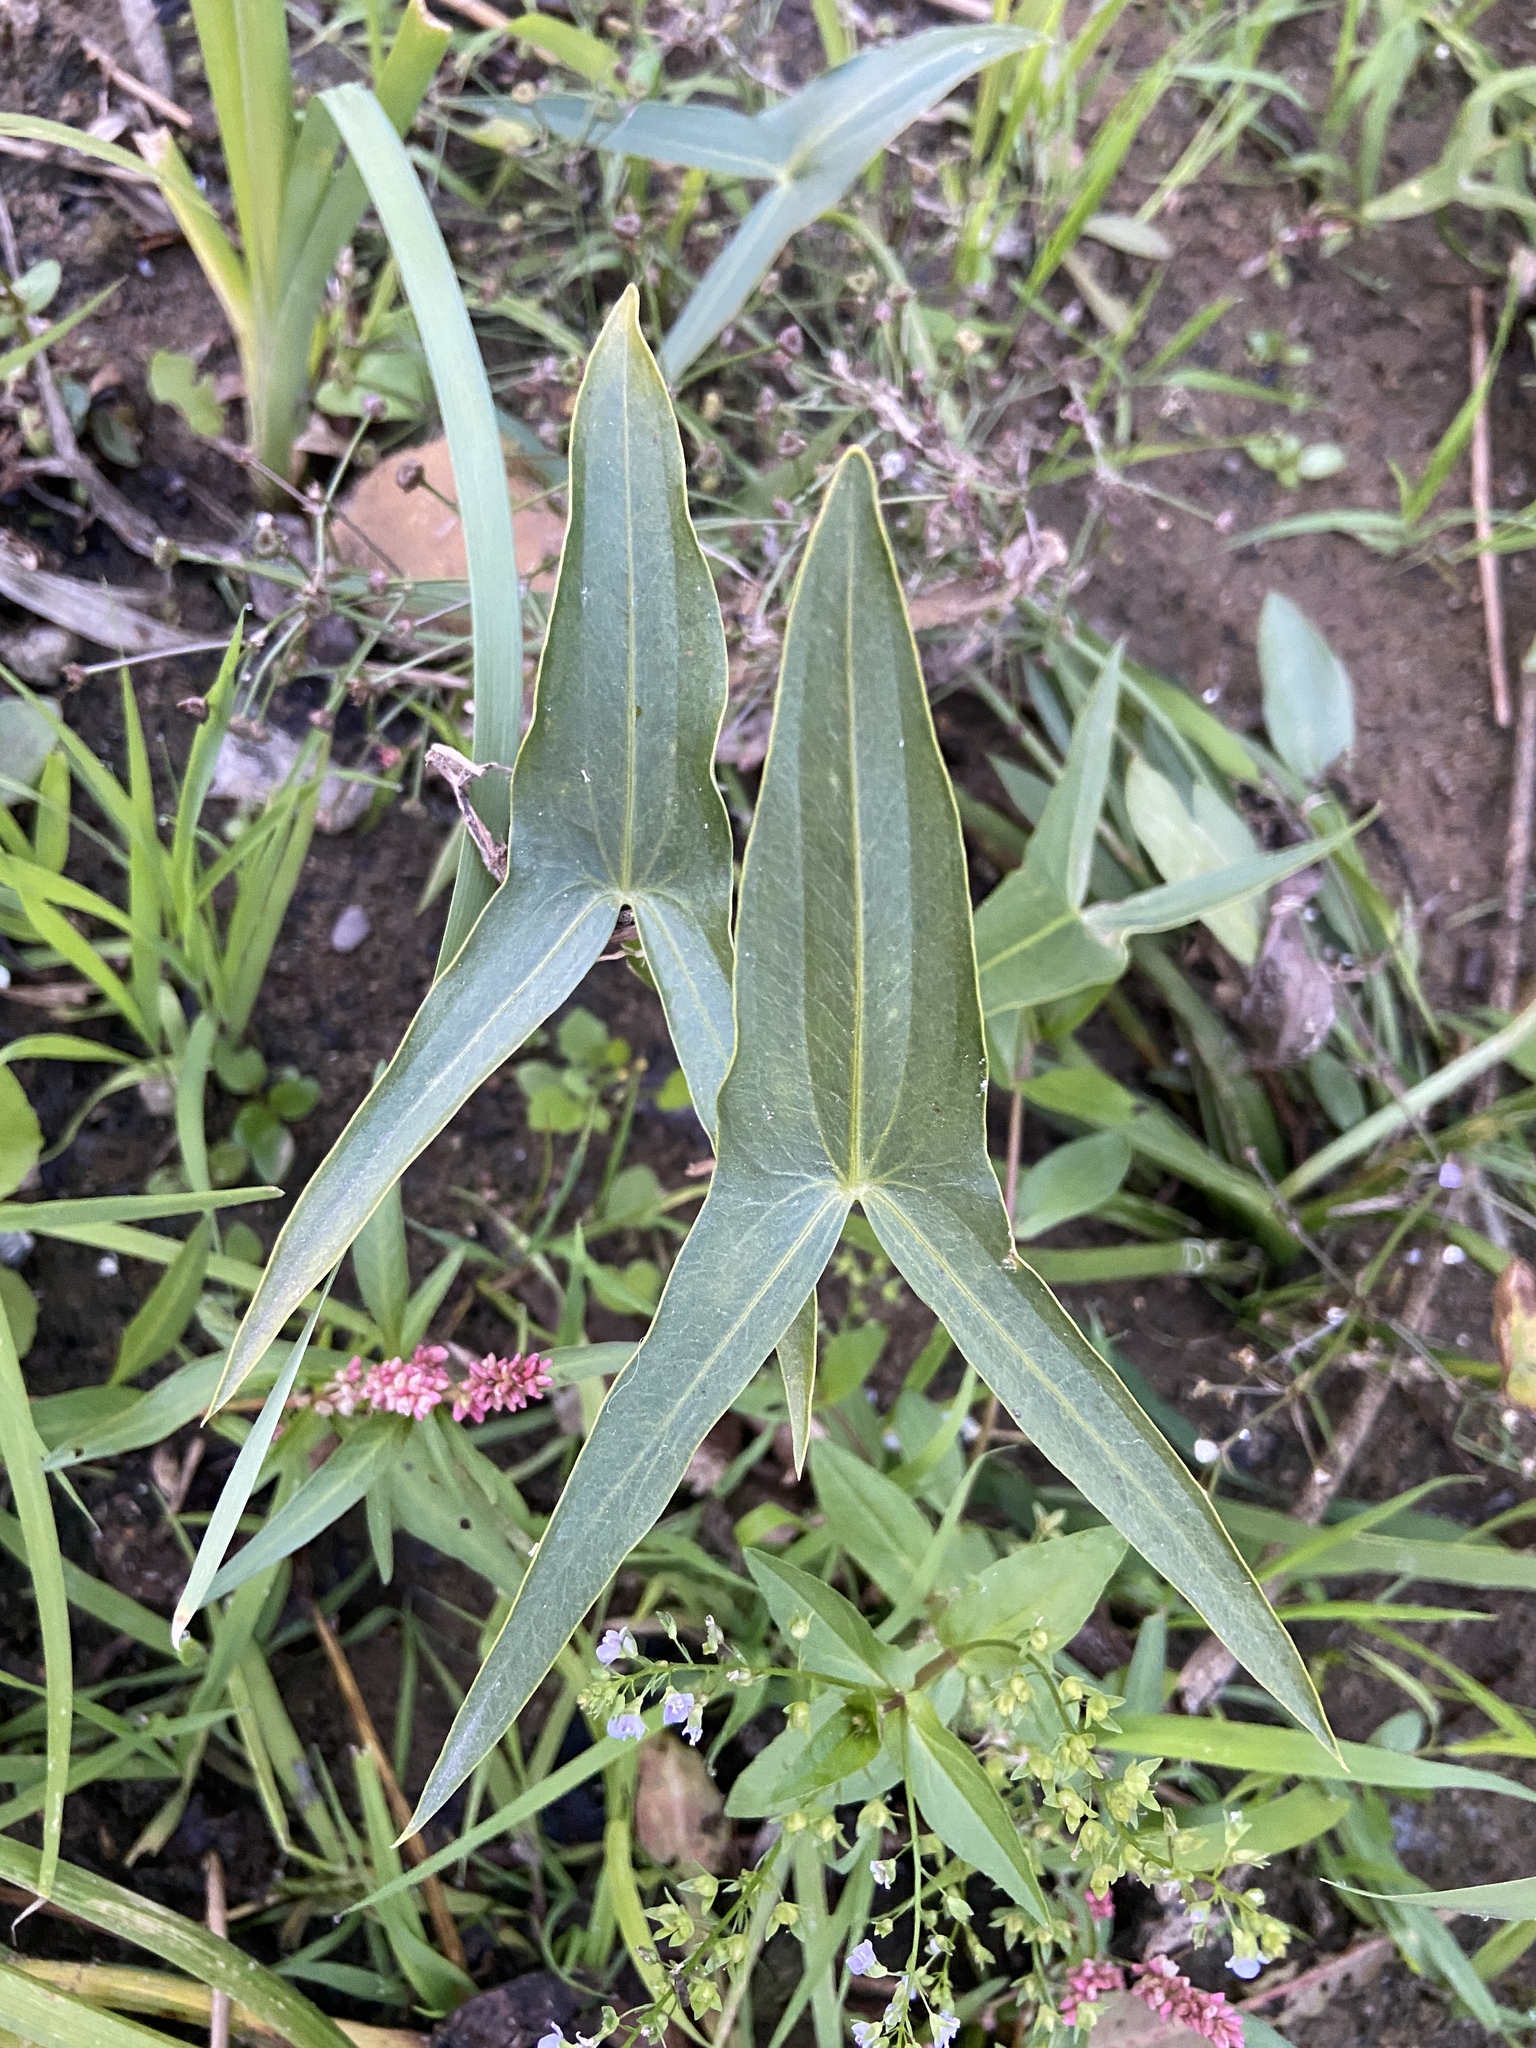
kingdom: Plantae
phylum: Tracheophyta
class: Liliopsida
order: Alismatales
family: Alismataceae
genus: Sagittaria
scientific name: Sagittaria sagittifolia
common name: Arrowhead
